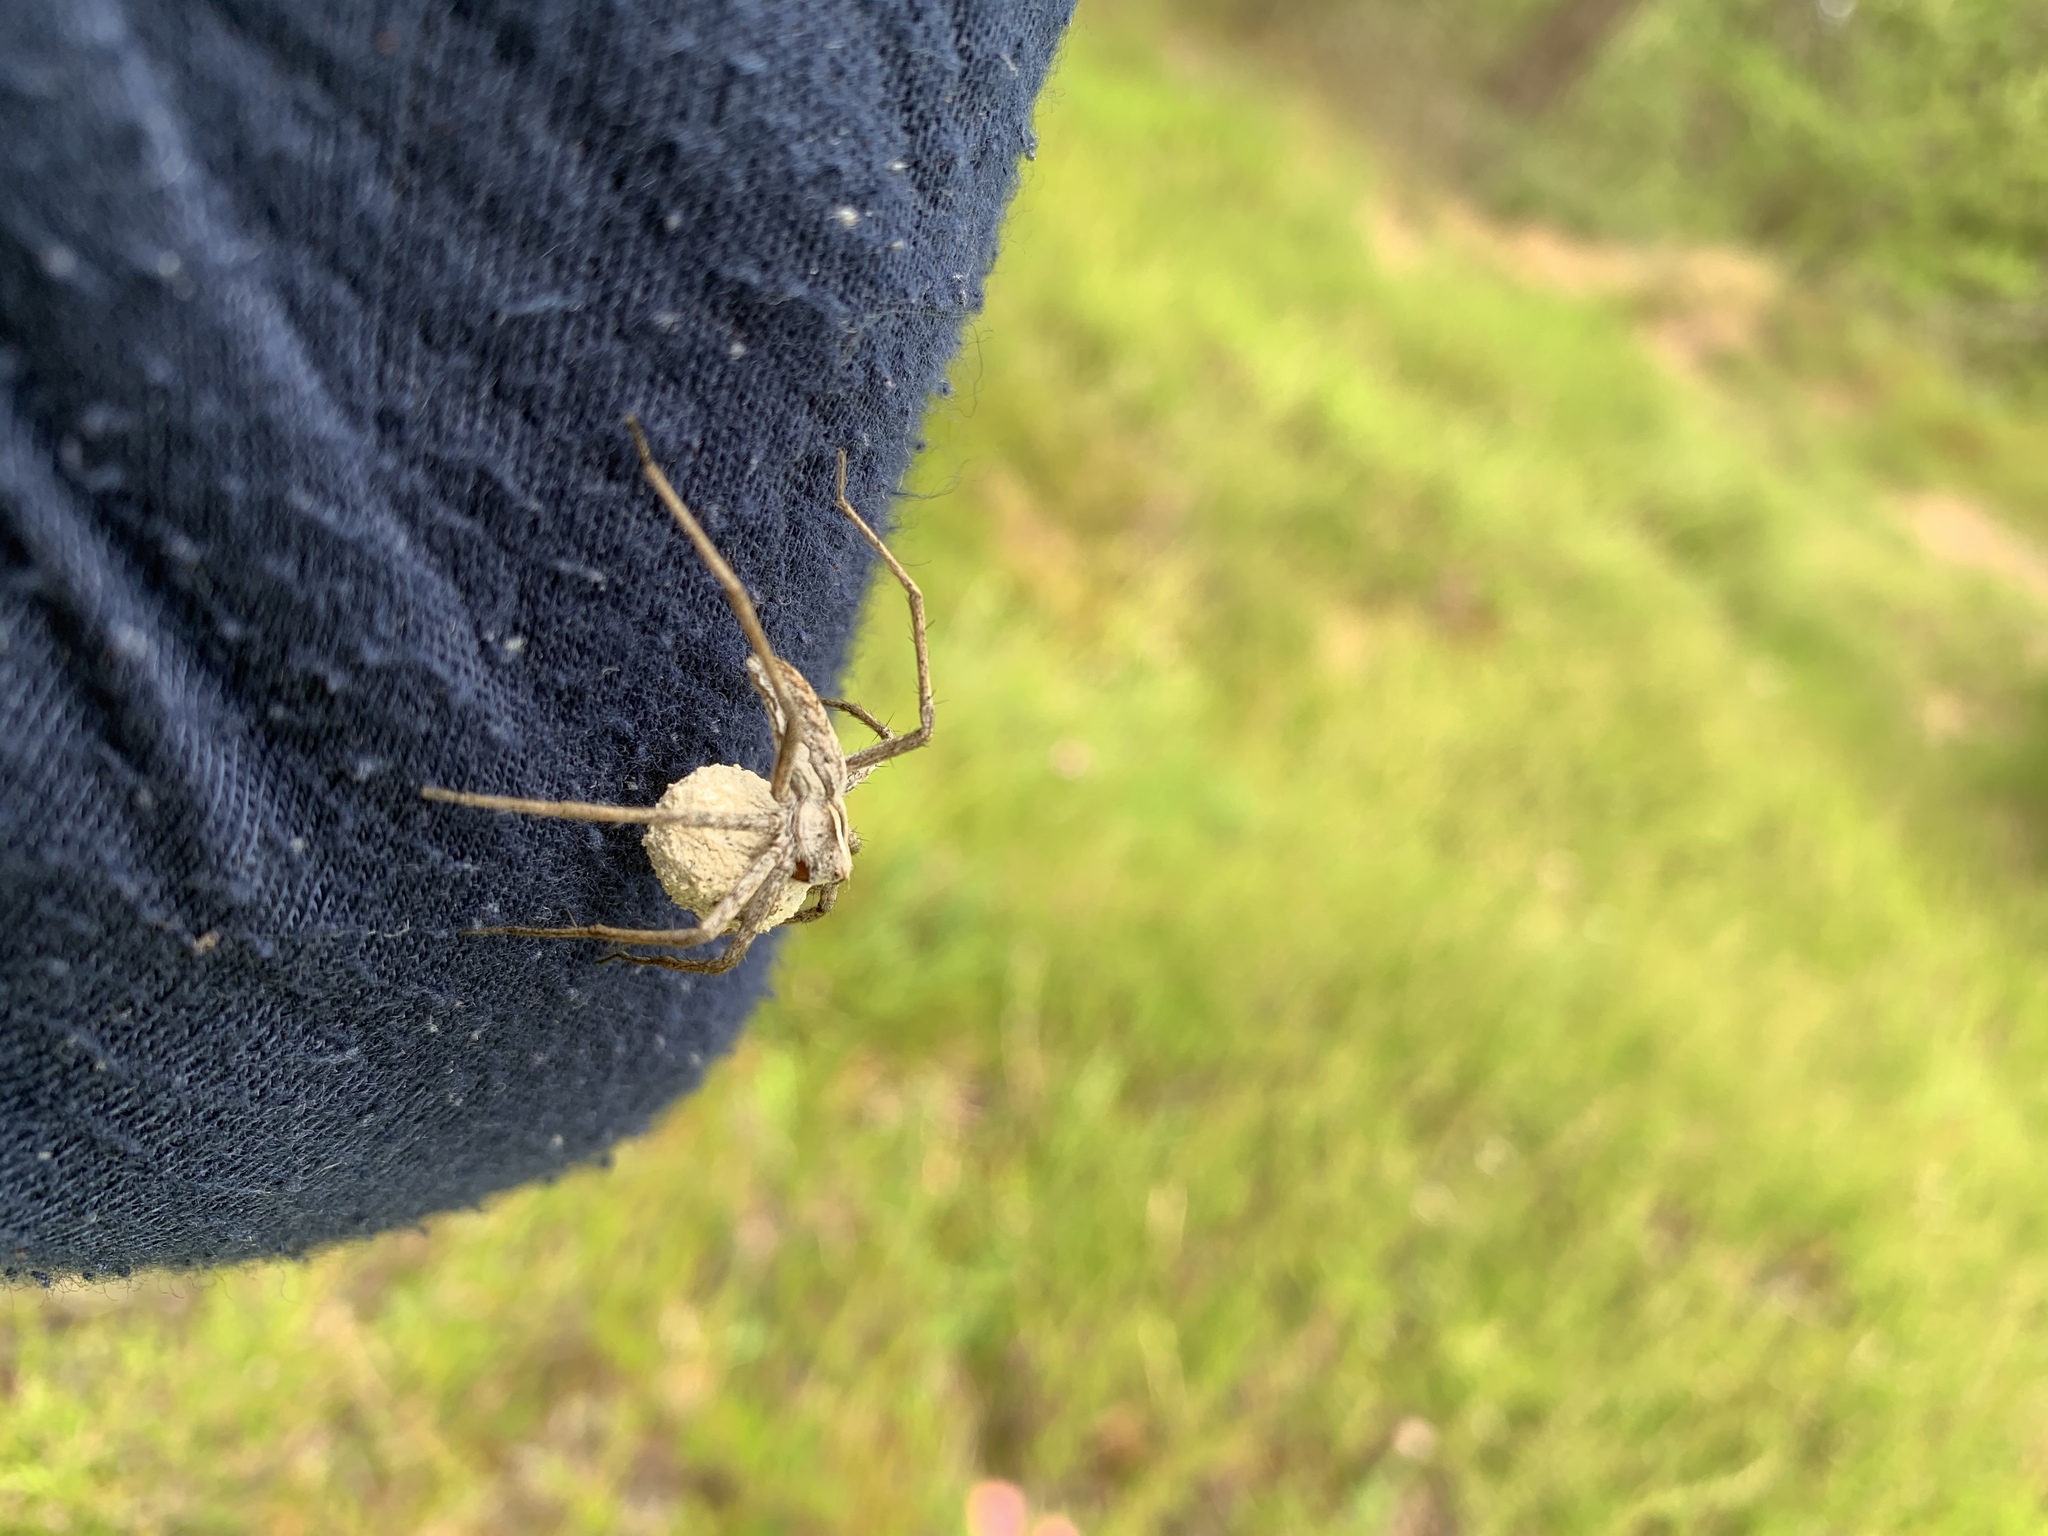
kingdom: Animalia
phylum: Arthropoda
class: Arachnida
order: Araneae
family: Pisauridae
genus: Pisaura
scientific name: Pisaura mirabilis
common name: Tent spider
